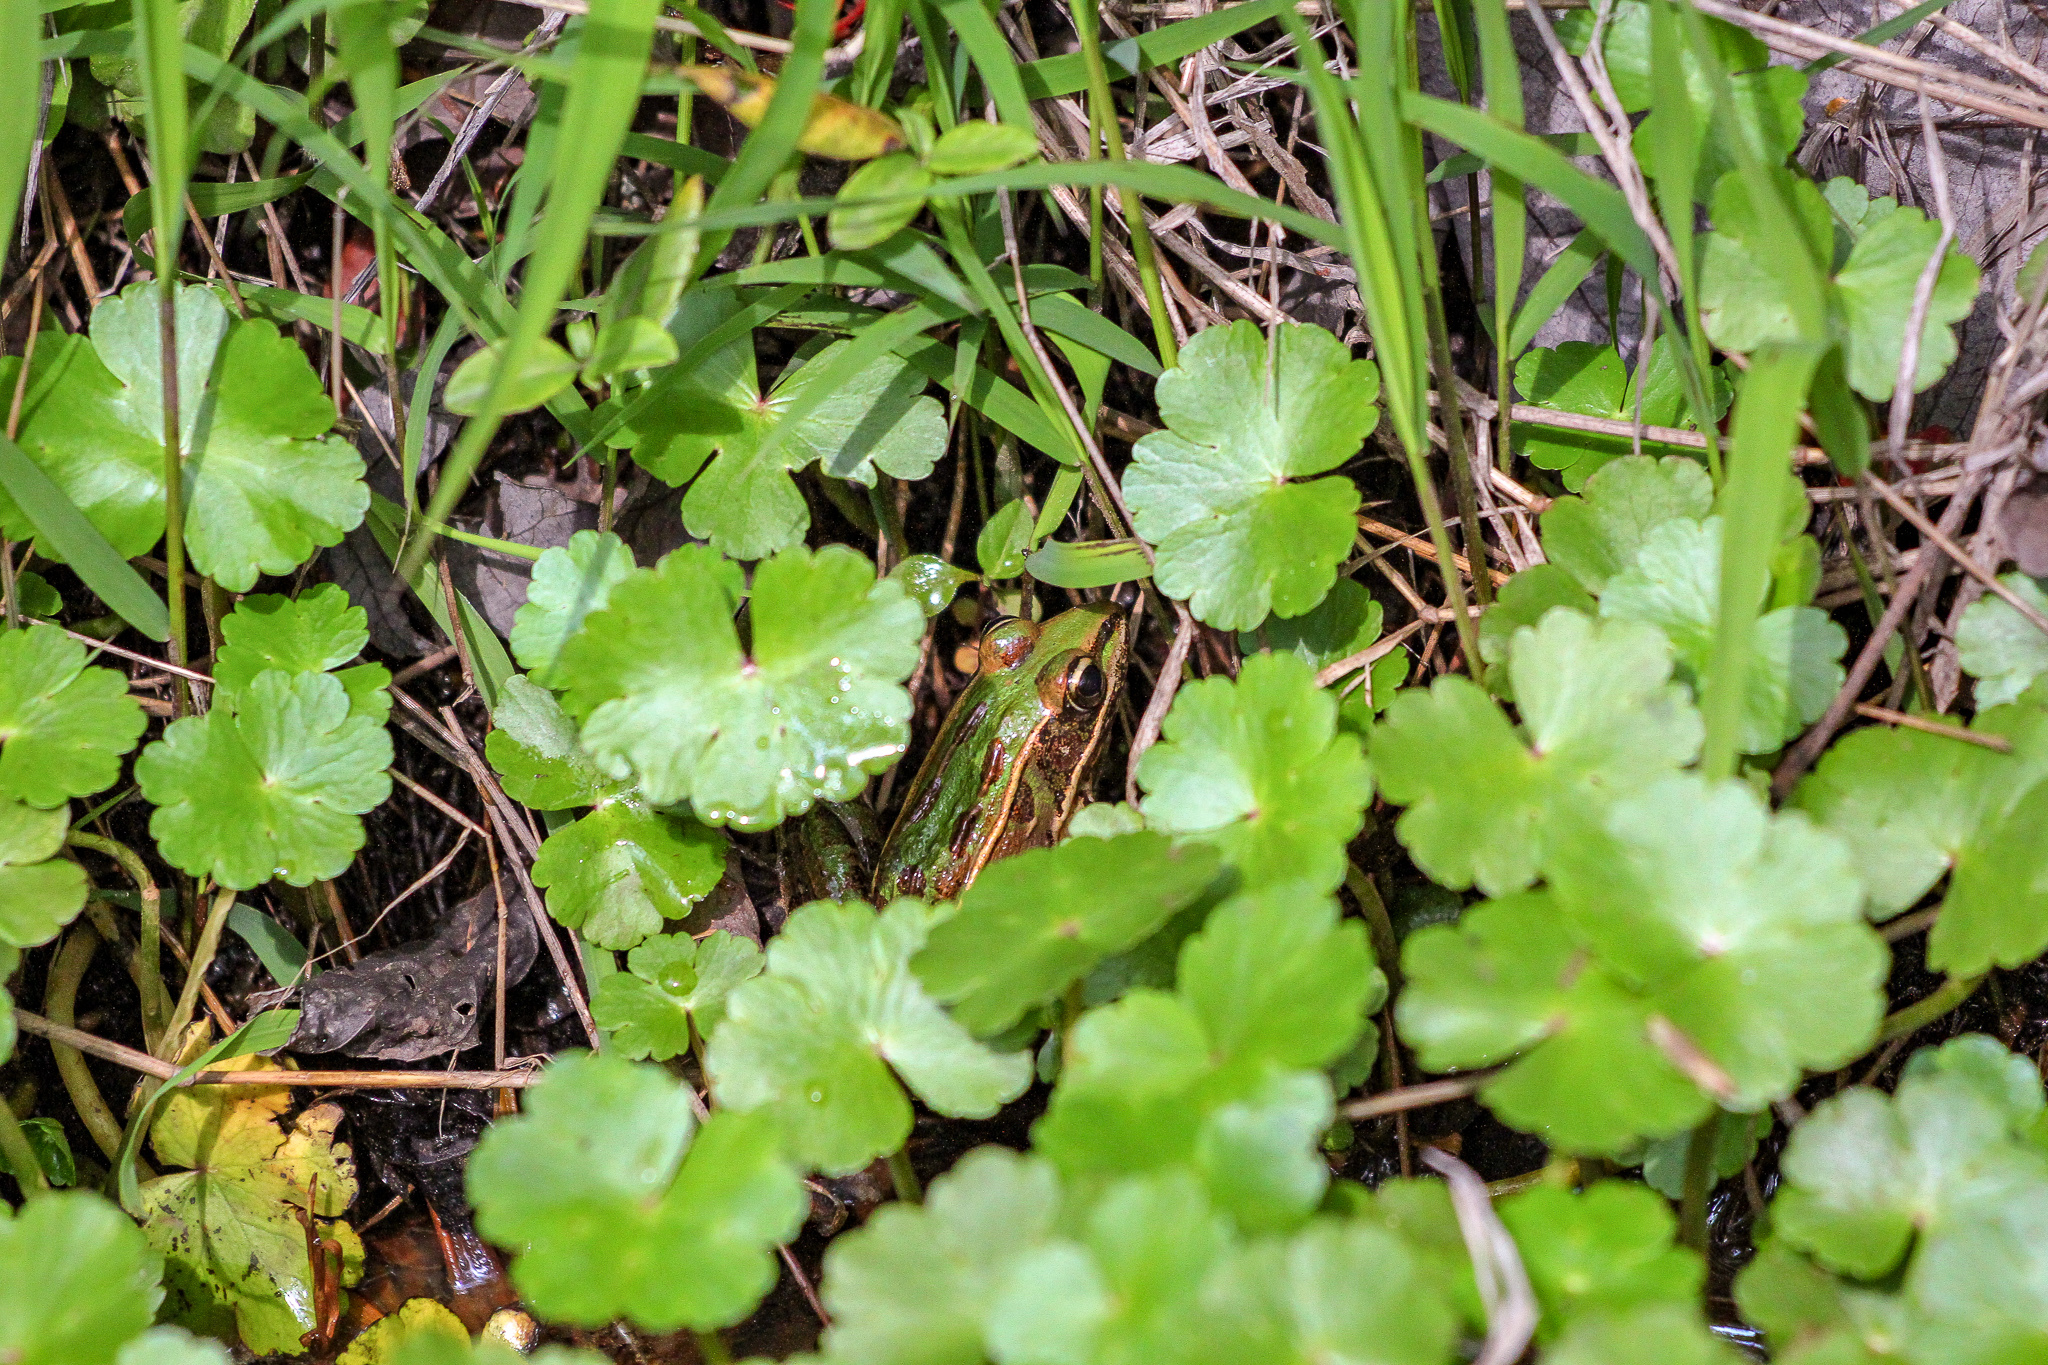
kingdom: Animalia
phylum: Chordata
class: Amphibia
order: Anura
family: Ranidae
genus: Lithobates
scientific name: Lithobates sphenocephalus
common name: Southern leopard frog
